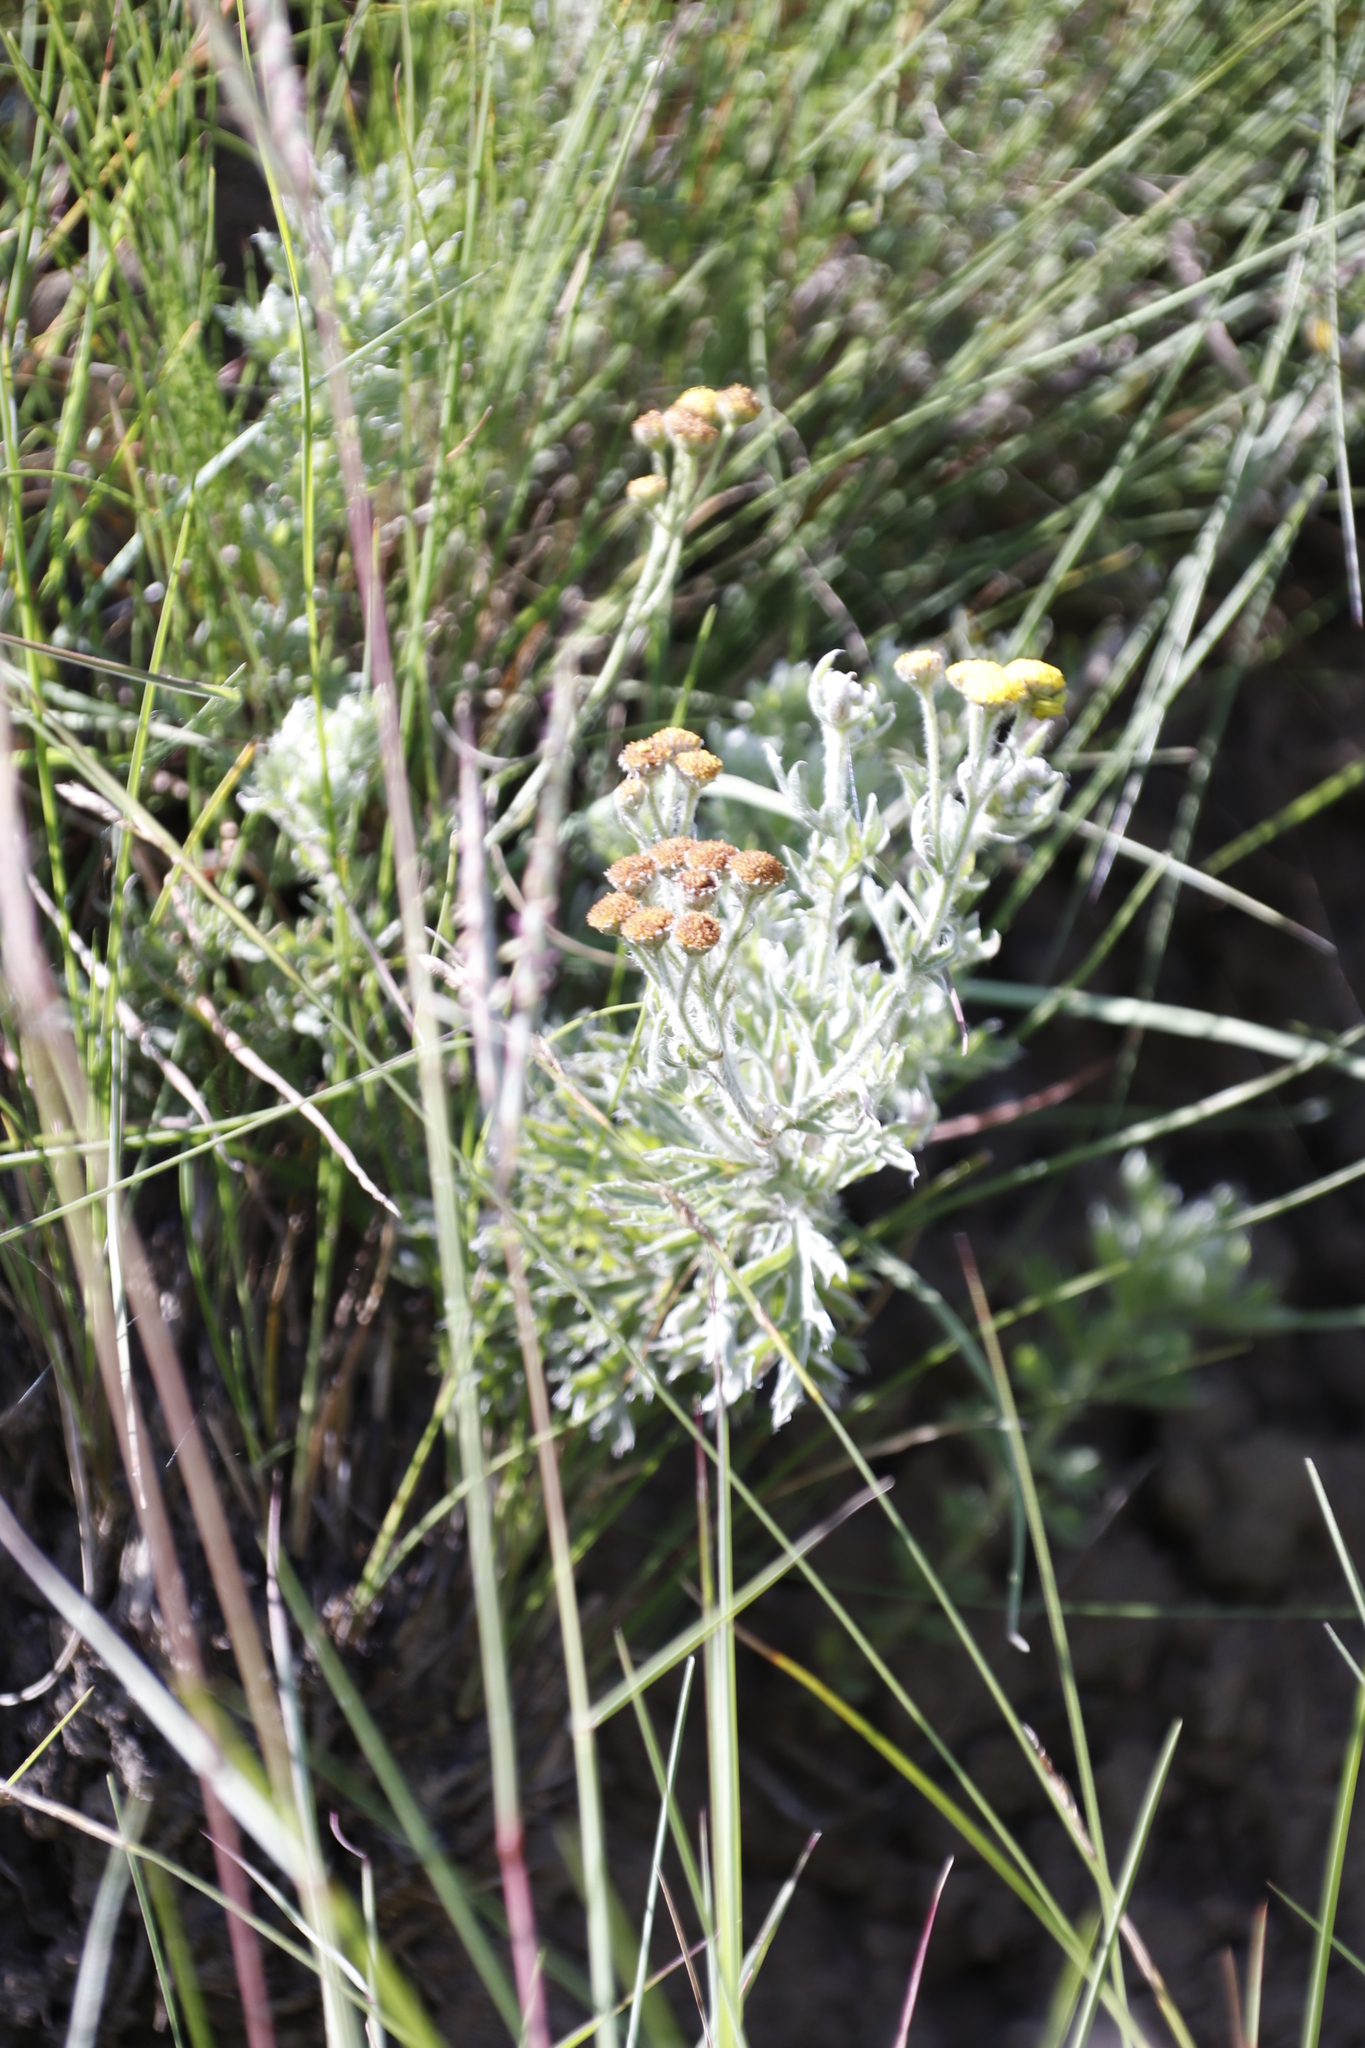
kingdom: Plantae
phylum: Tracheophyta
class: Magnoliopsida
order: Asterales
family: Asteraceae
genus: Schistostephium
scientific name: Schistostephium crataegifolium
